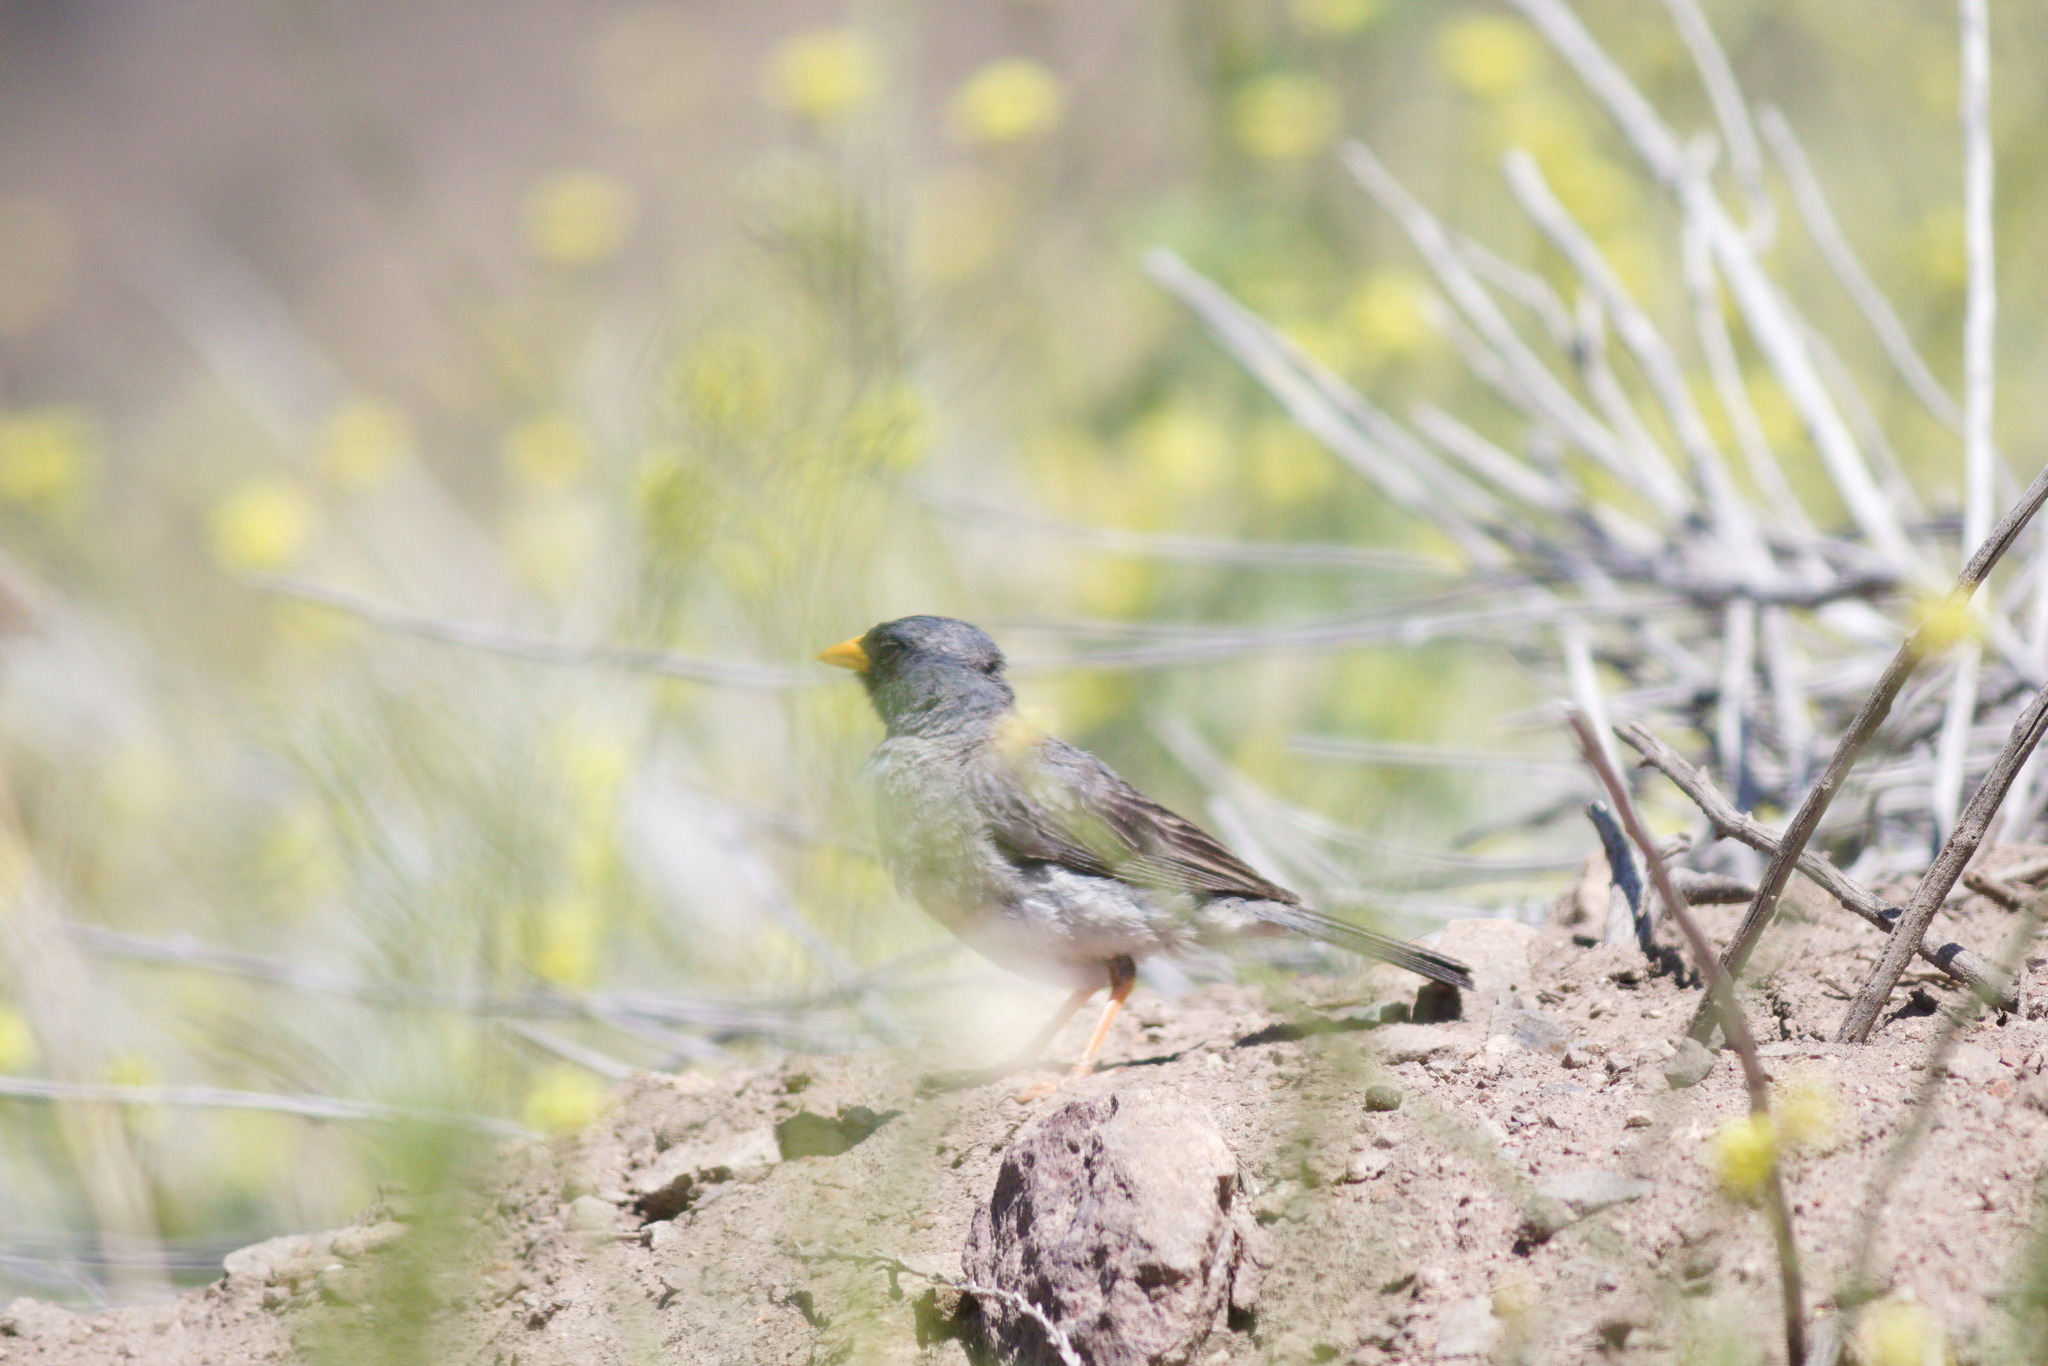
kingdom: Animalia
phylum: Chordata
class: Aves
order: Passeriformes
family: Thraupidae
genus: Porphyrospiza
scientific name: Porphyrospiza alaudina
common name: Band-tailed sierra finch
